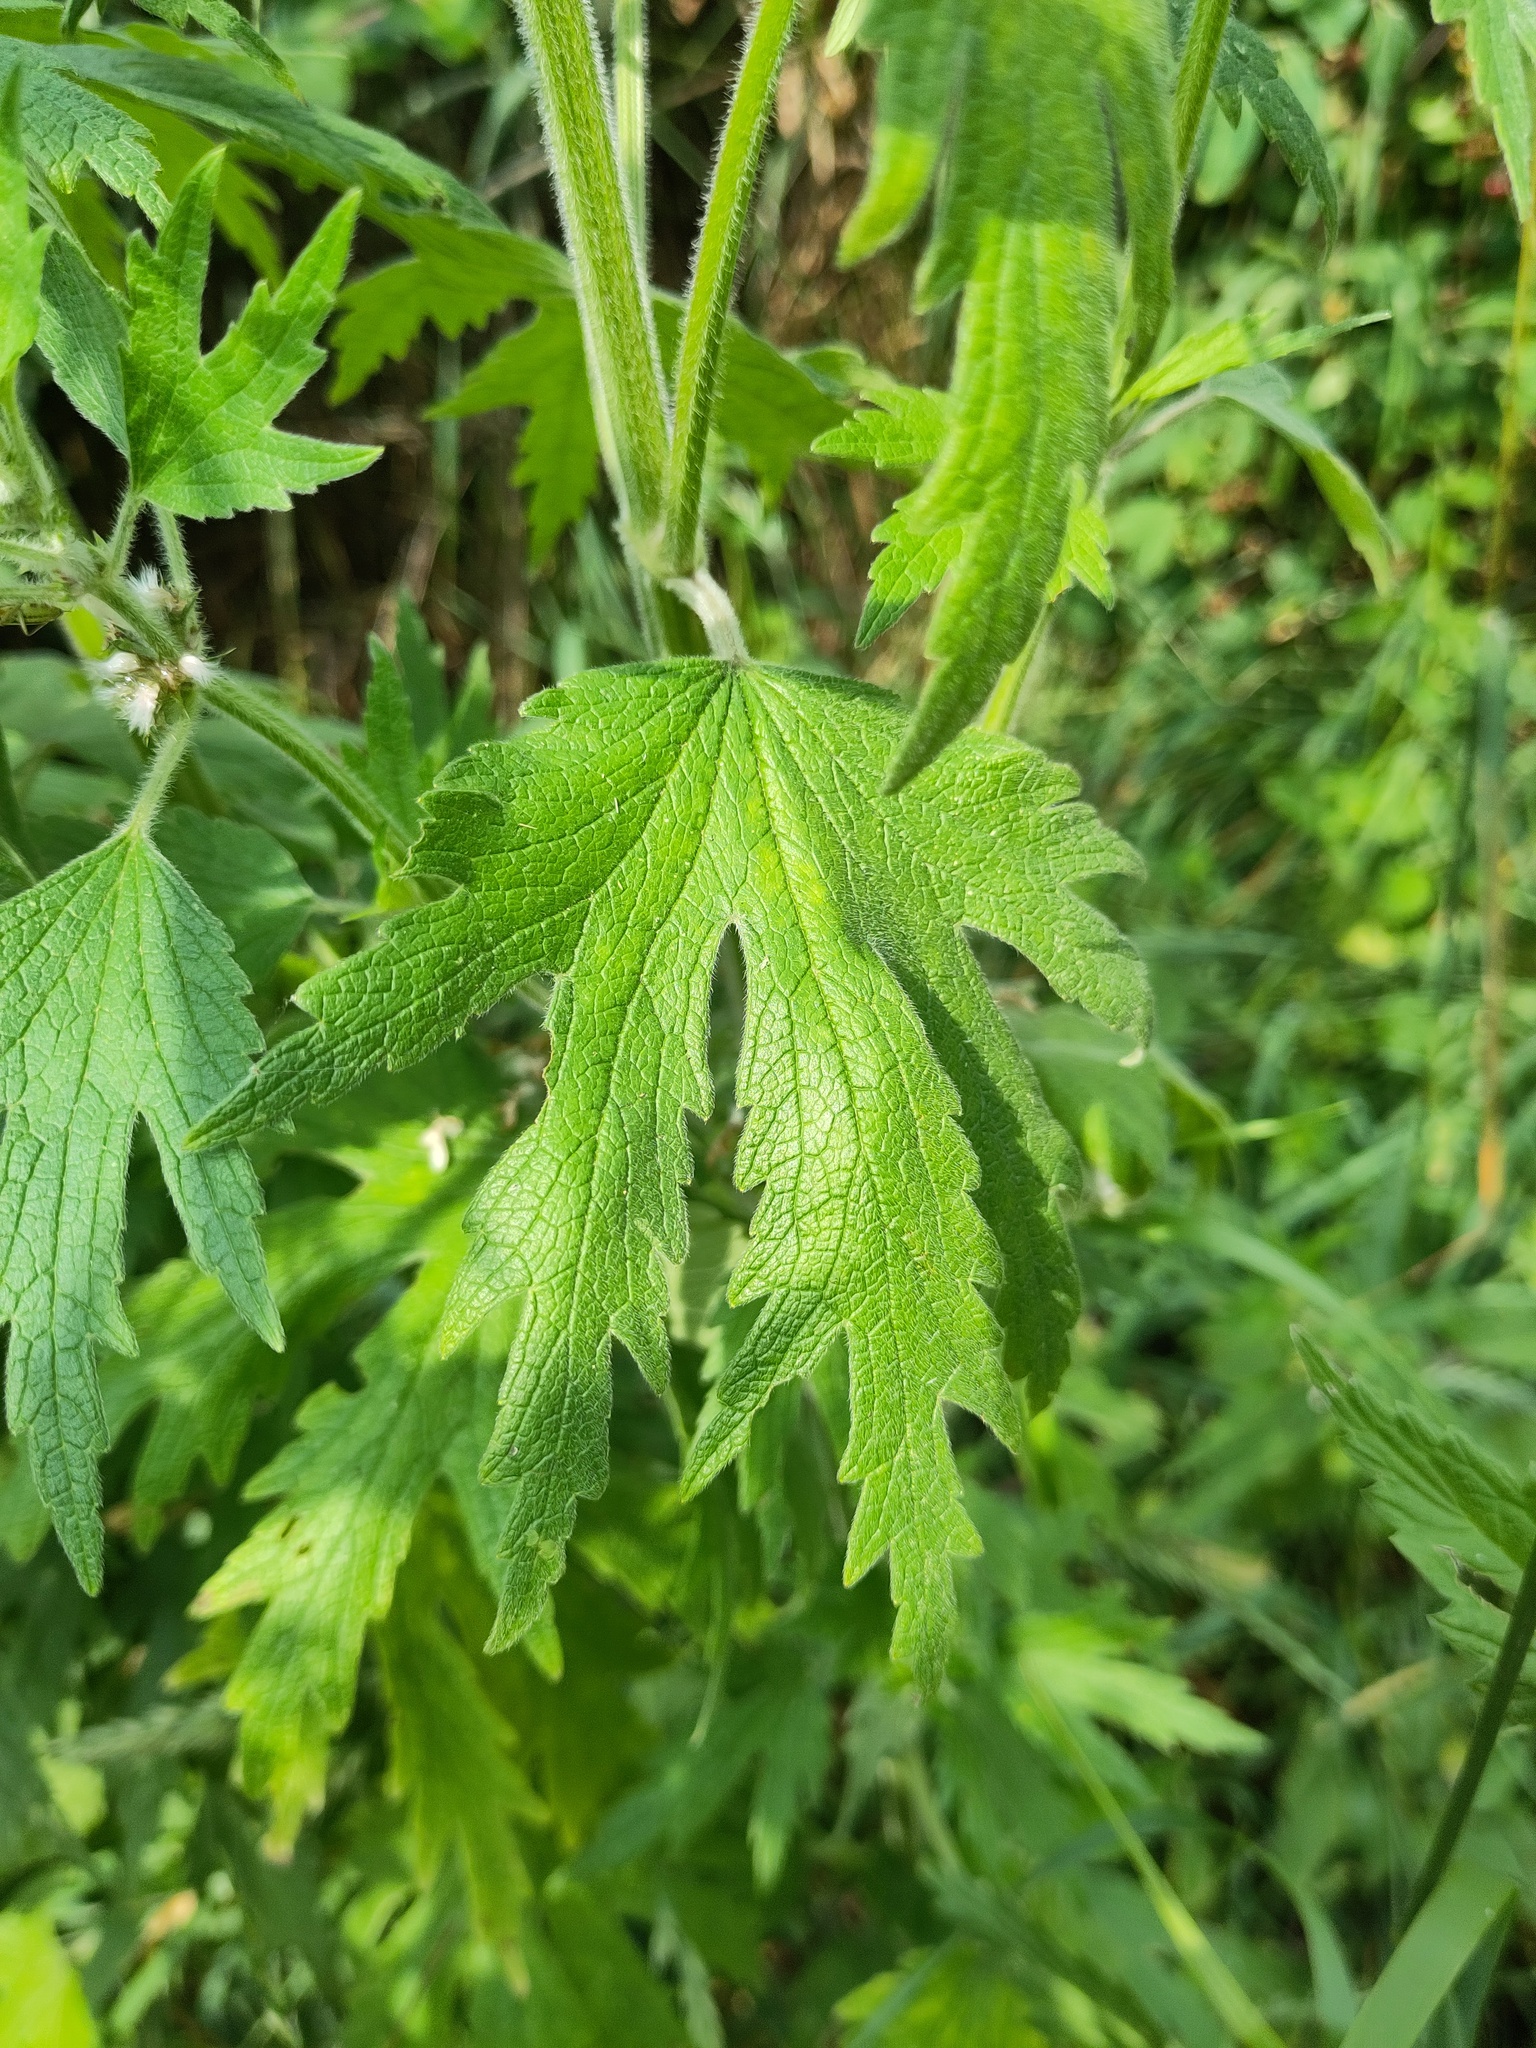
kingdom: Plantae
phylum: Tracheophyta
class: Magnoliopsida
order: Lamiales
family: Lamiaceae
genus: Leonurus
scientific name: Leonurus quinquelobatus
